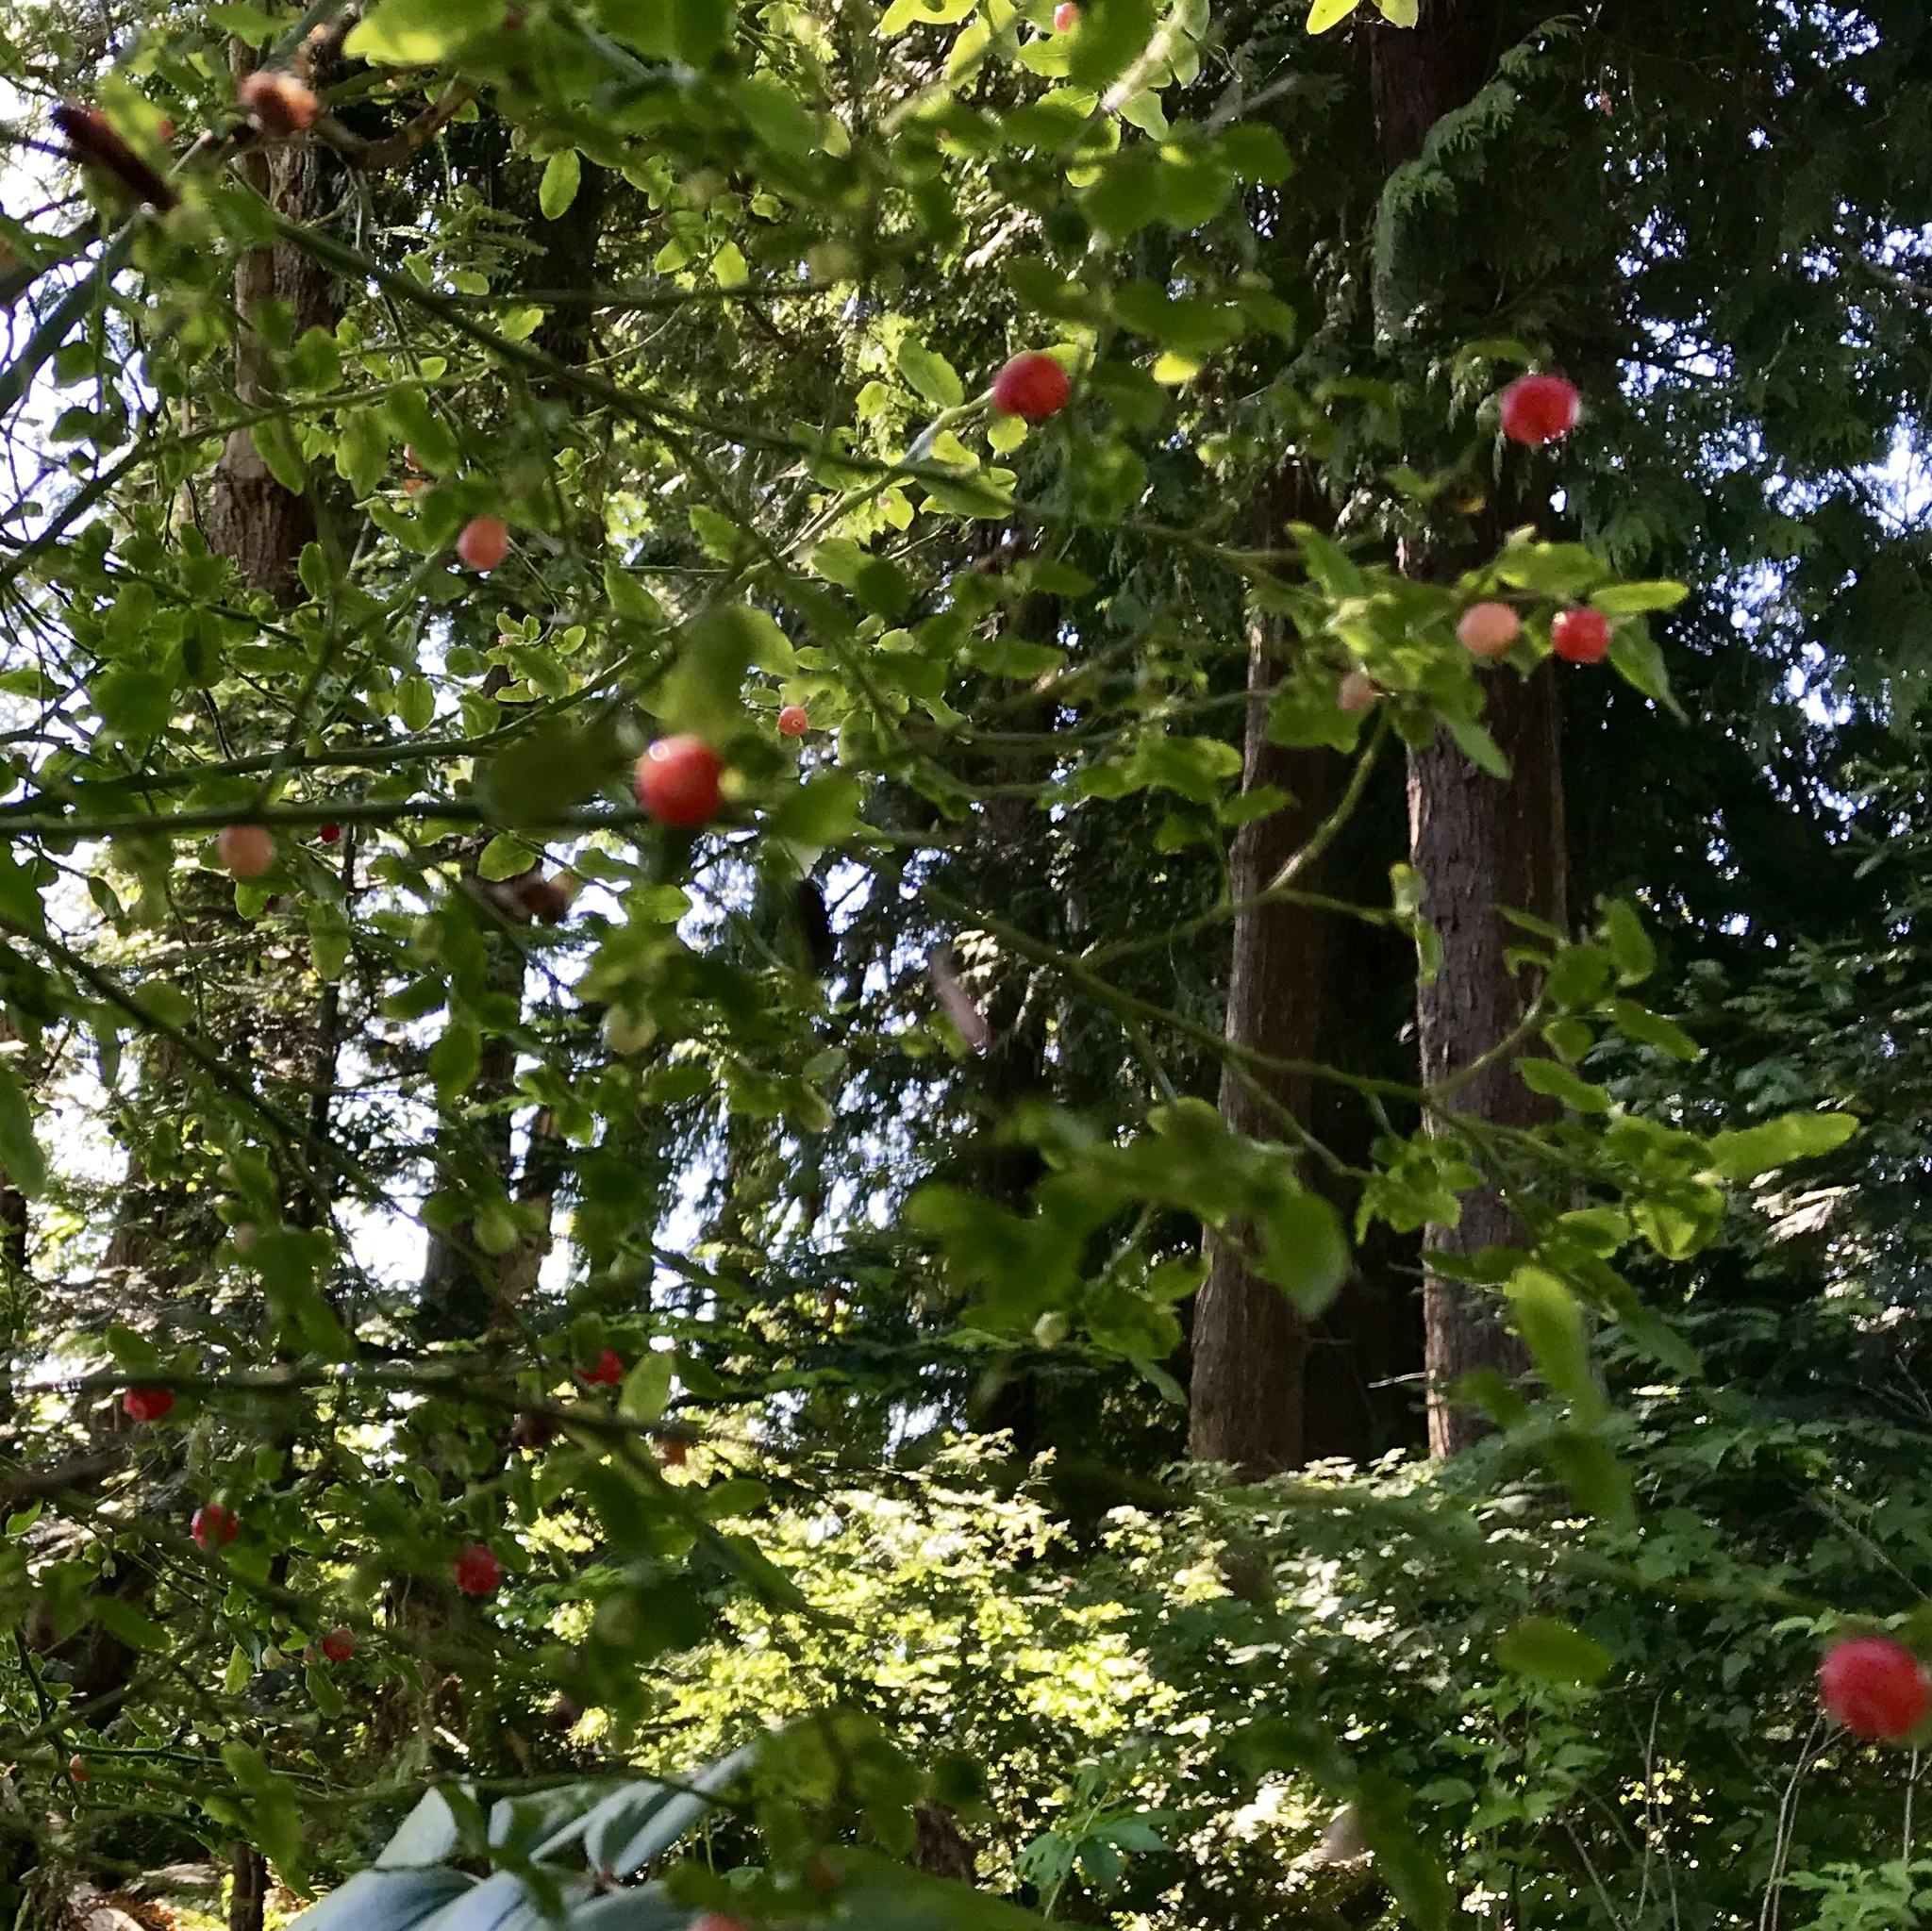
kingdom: Plantae
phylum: Tracheophyta
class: Magnoliopsida
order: Ericales
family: Ericaceae
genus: Vaccinium
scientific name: Vaccinium parvifolium
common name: Red-huckleberry
